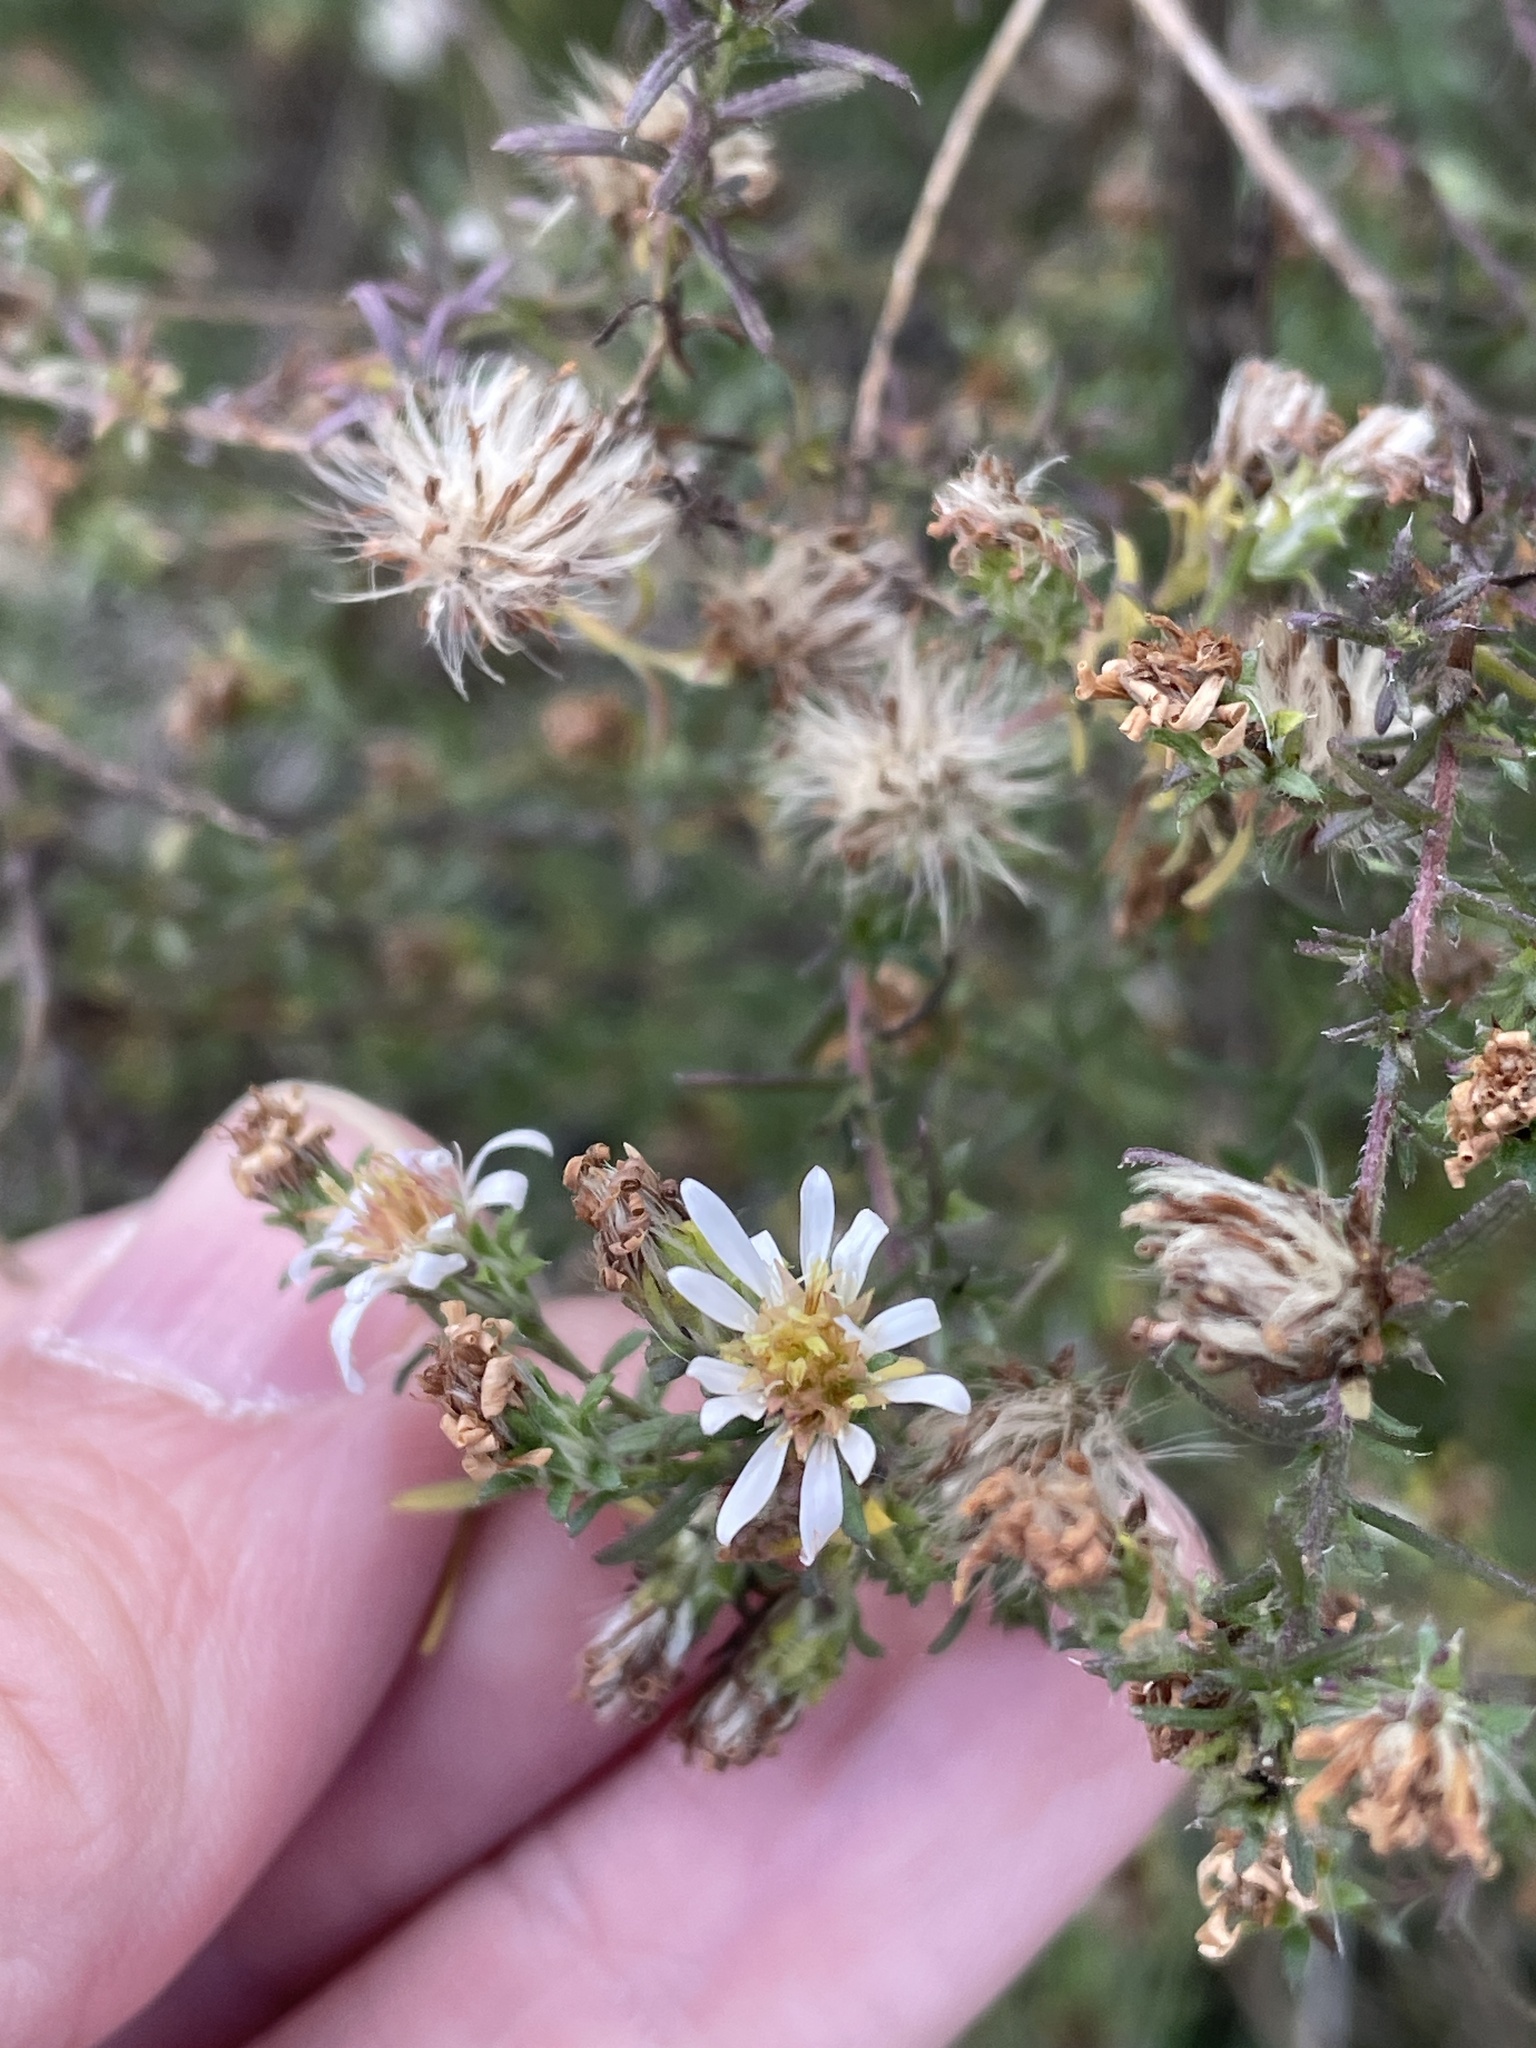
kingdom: Plantae
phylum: Tracheophyta
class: Magnoliopsida
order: Asterales
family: Asteraceae
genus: Symphyotrichum
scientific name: Symphyotrichum ericoides
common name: Heath aster
